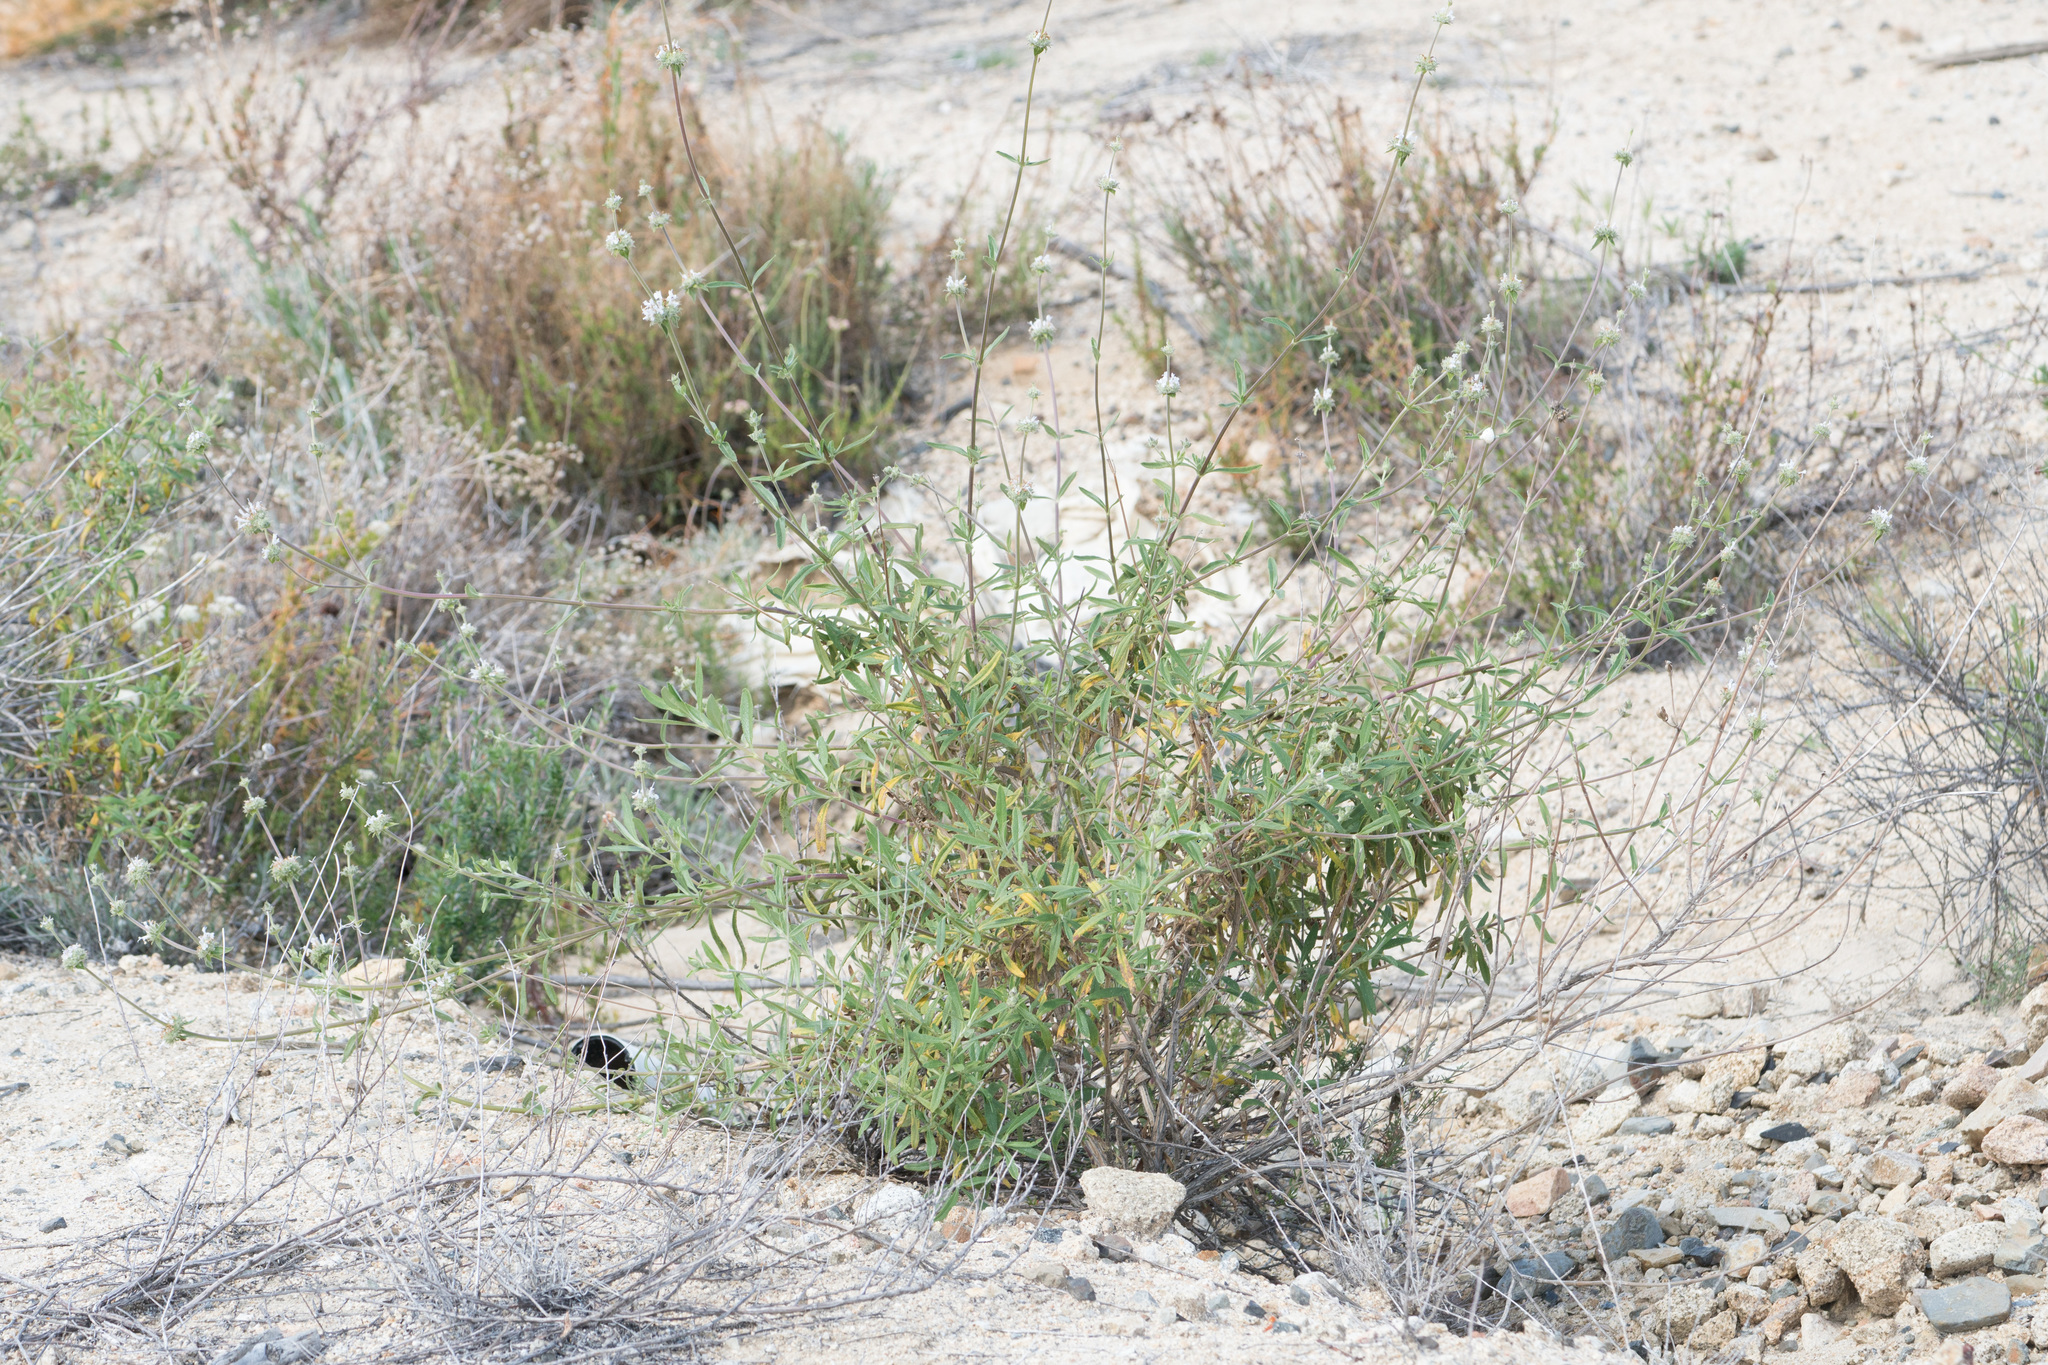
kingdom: Plantae
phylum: Tracheophyta
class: Magnoliopsida
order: Lamiales
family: Lamiaceae
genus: Salvia
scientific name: Salvia mellifera
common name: Black sage
